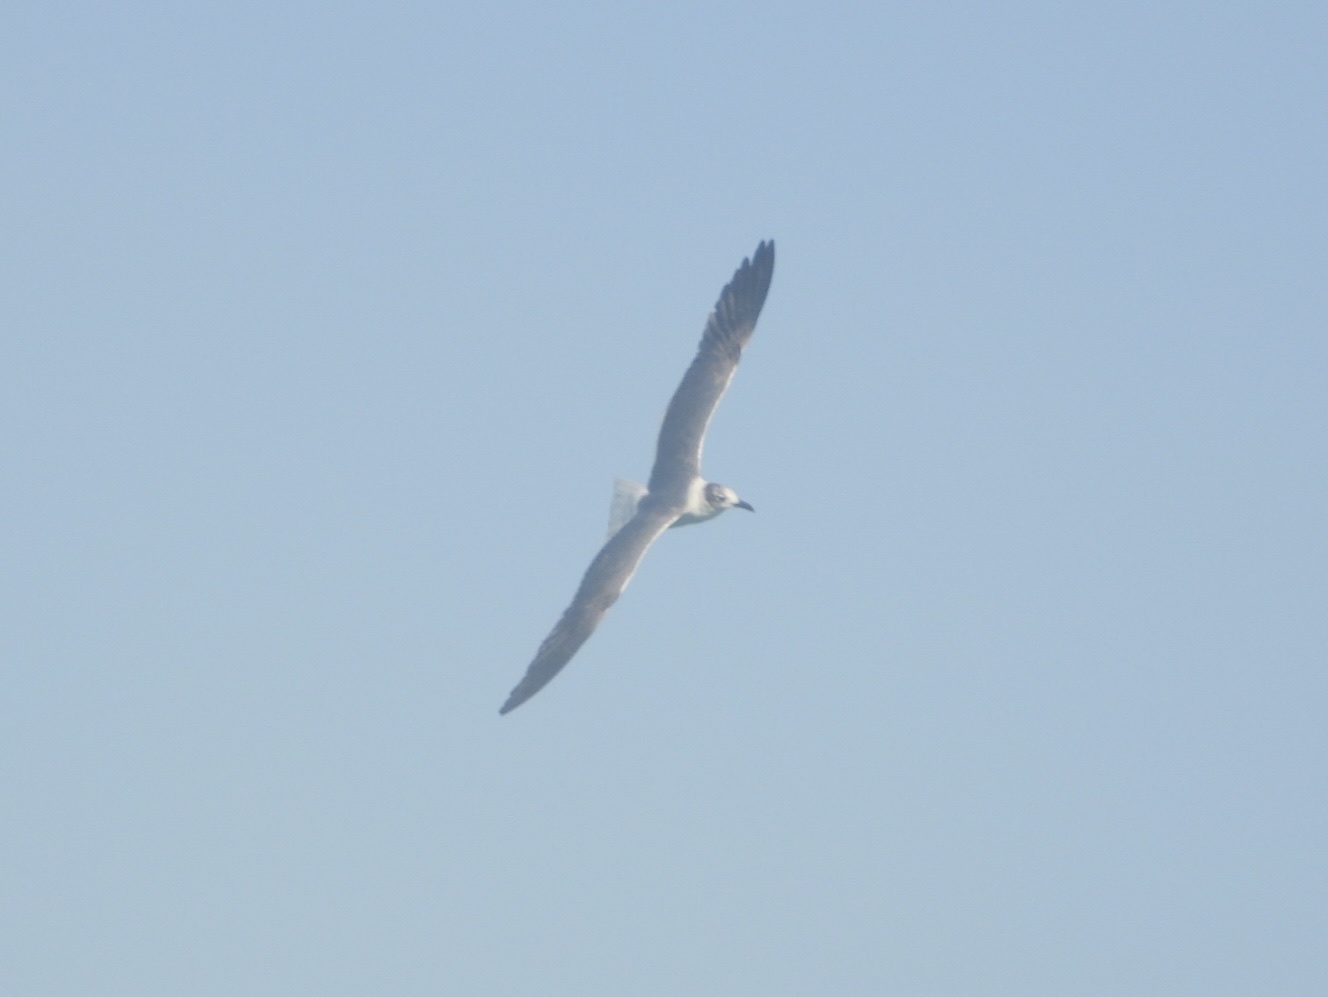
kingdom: Animalia
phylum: Chordata
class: Aves
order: Charadriiformes
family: Laridae
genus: Leucophaeus
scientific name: Leucophaeus atricilla
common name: Laughing gull
